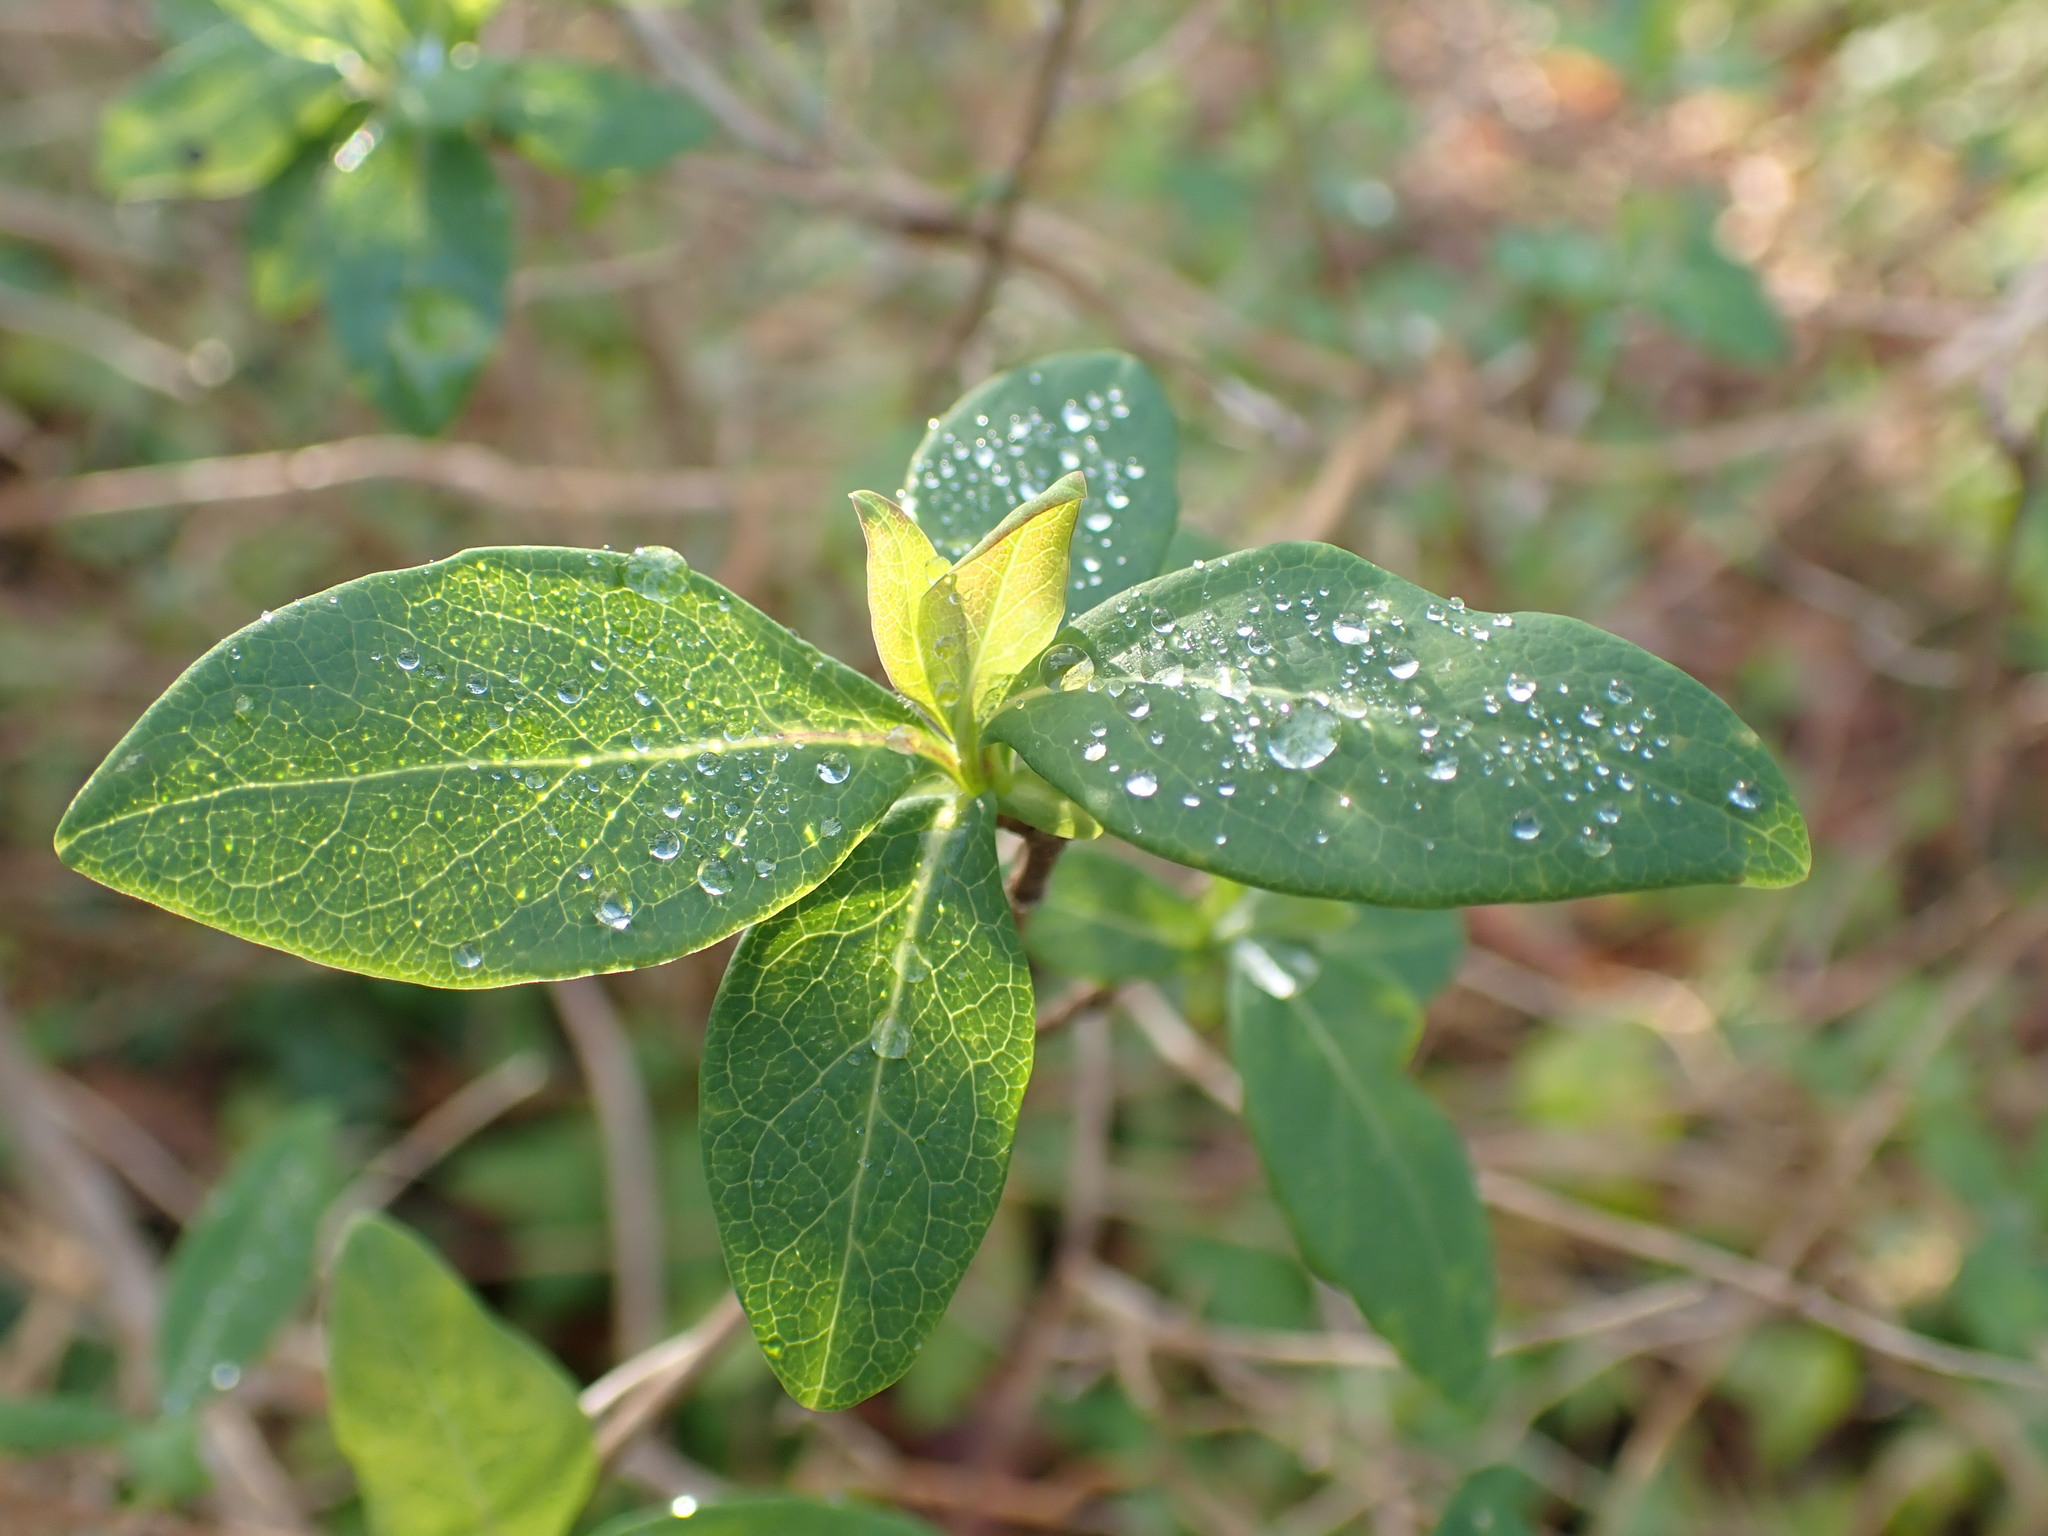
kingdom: Plantae
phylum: Tracheophyta
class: Magnoliopsida
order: Dipsacales
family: Caprifoliaceae
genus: Lonicera
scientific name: Lonicera periclymenum
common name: European honeysuckle
